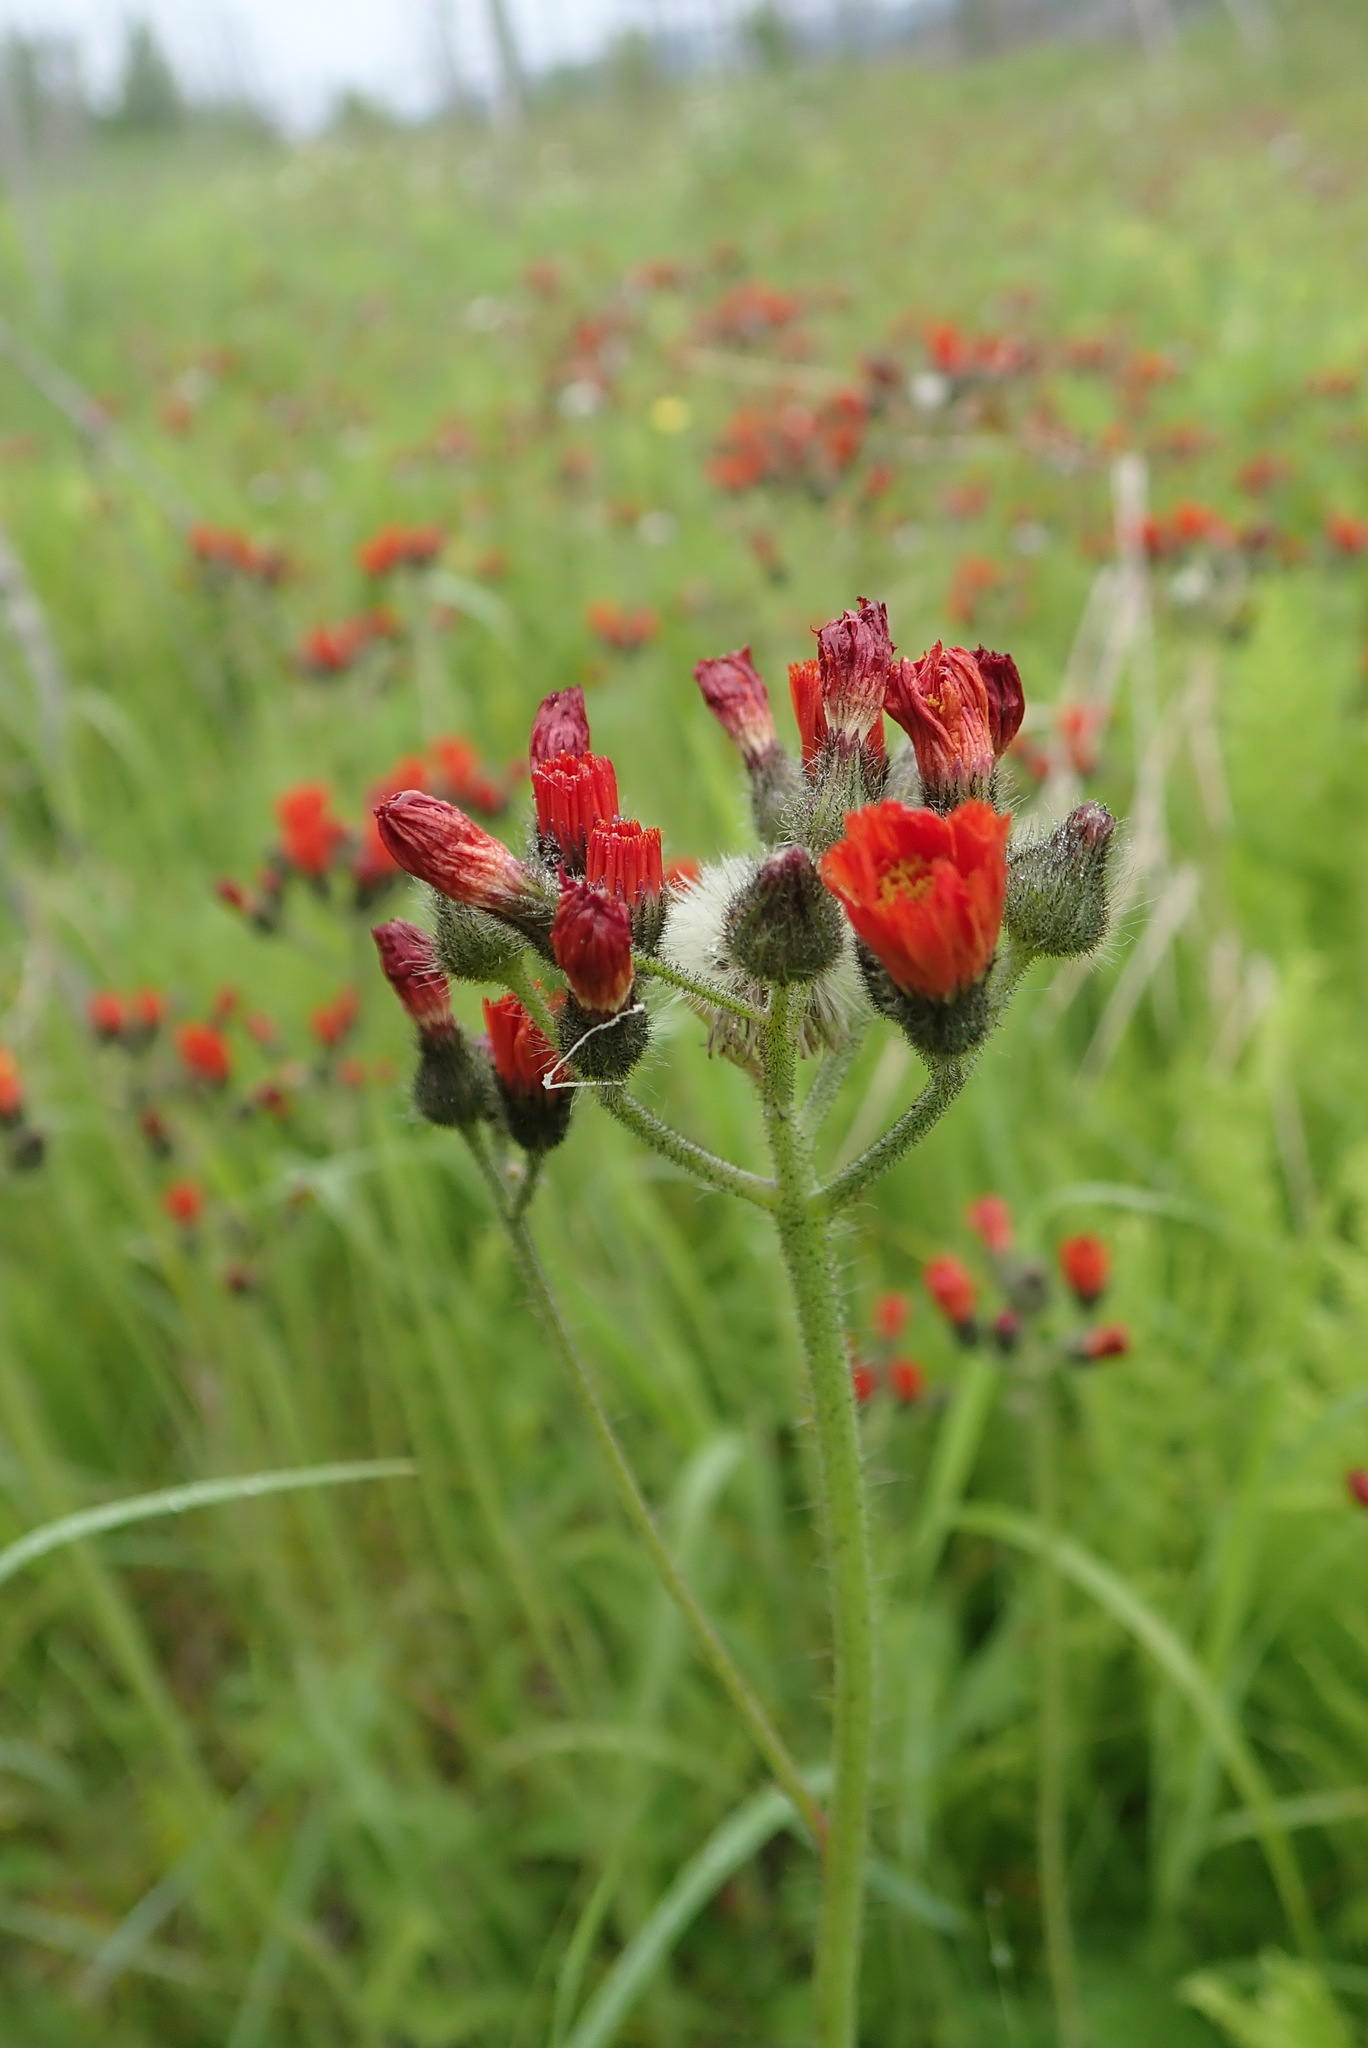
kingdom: Plantae
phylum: Tracheophyta
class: Magnoliopsida
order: Asterales
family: Asteraceae
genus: Pilosella
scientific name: Pilosella aurantiaca
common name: Fox-and-cubs
